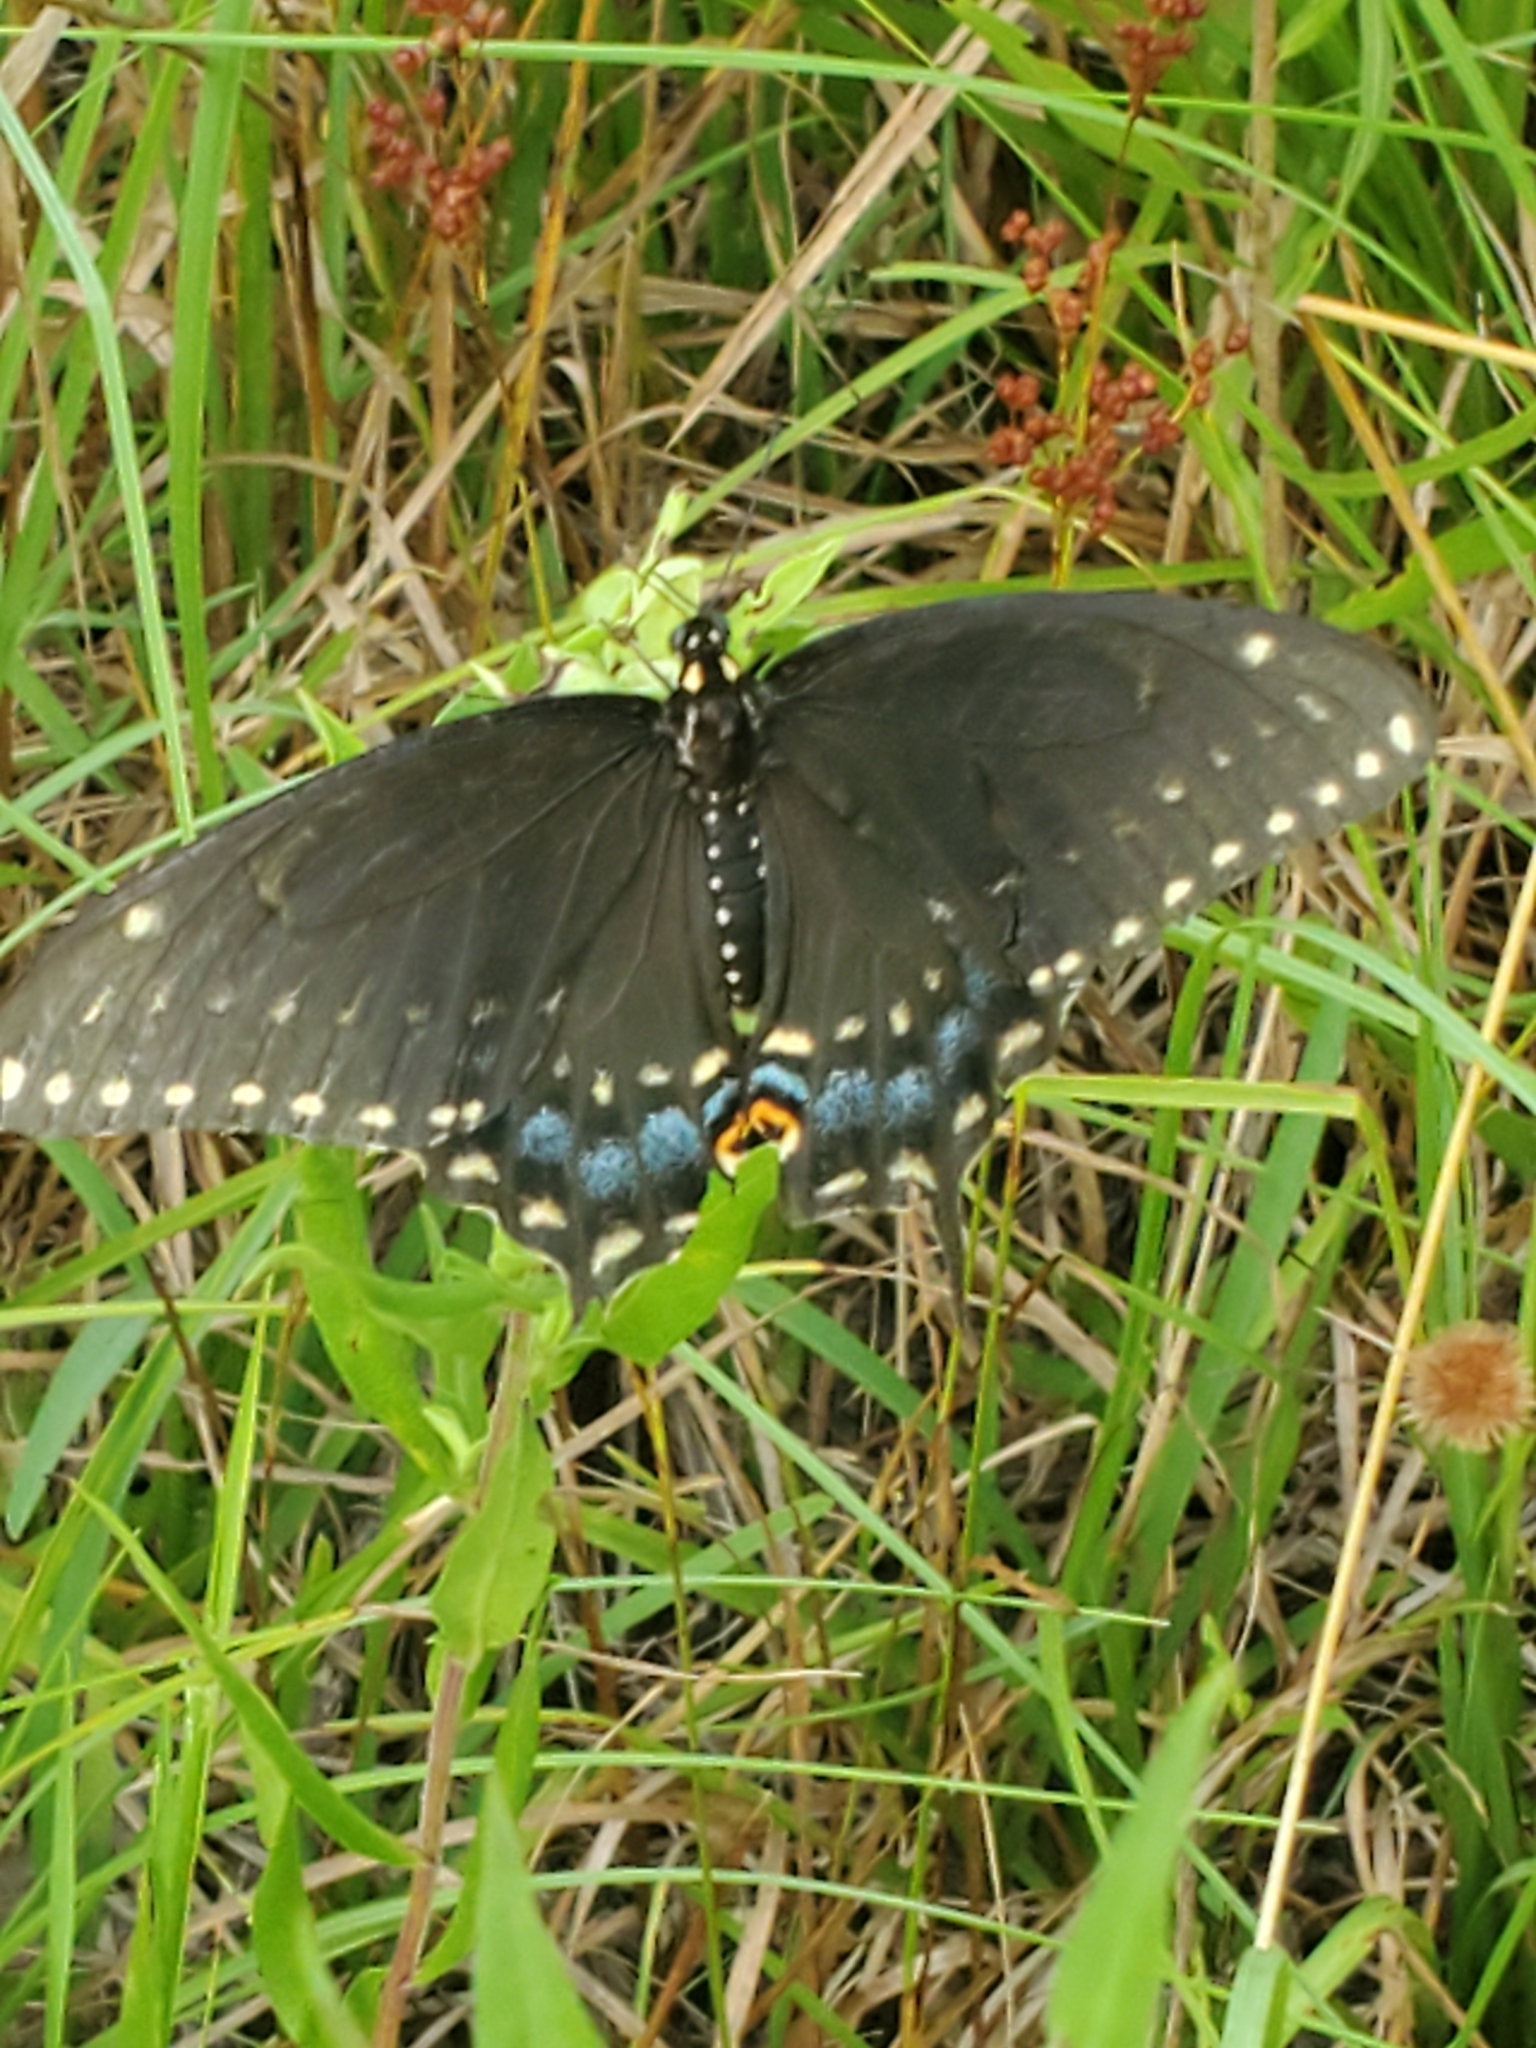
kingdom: Animalia
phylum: Arthropoda
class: Insecta
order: Lepidoptera
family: Papilionidae
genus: Papilio
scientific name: Papilio polyxenes
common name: Black swallowtail
